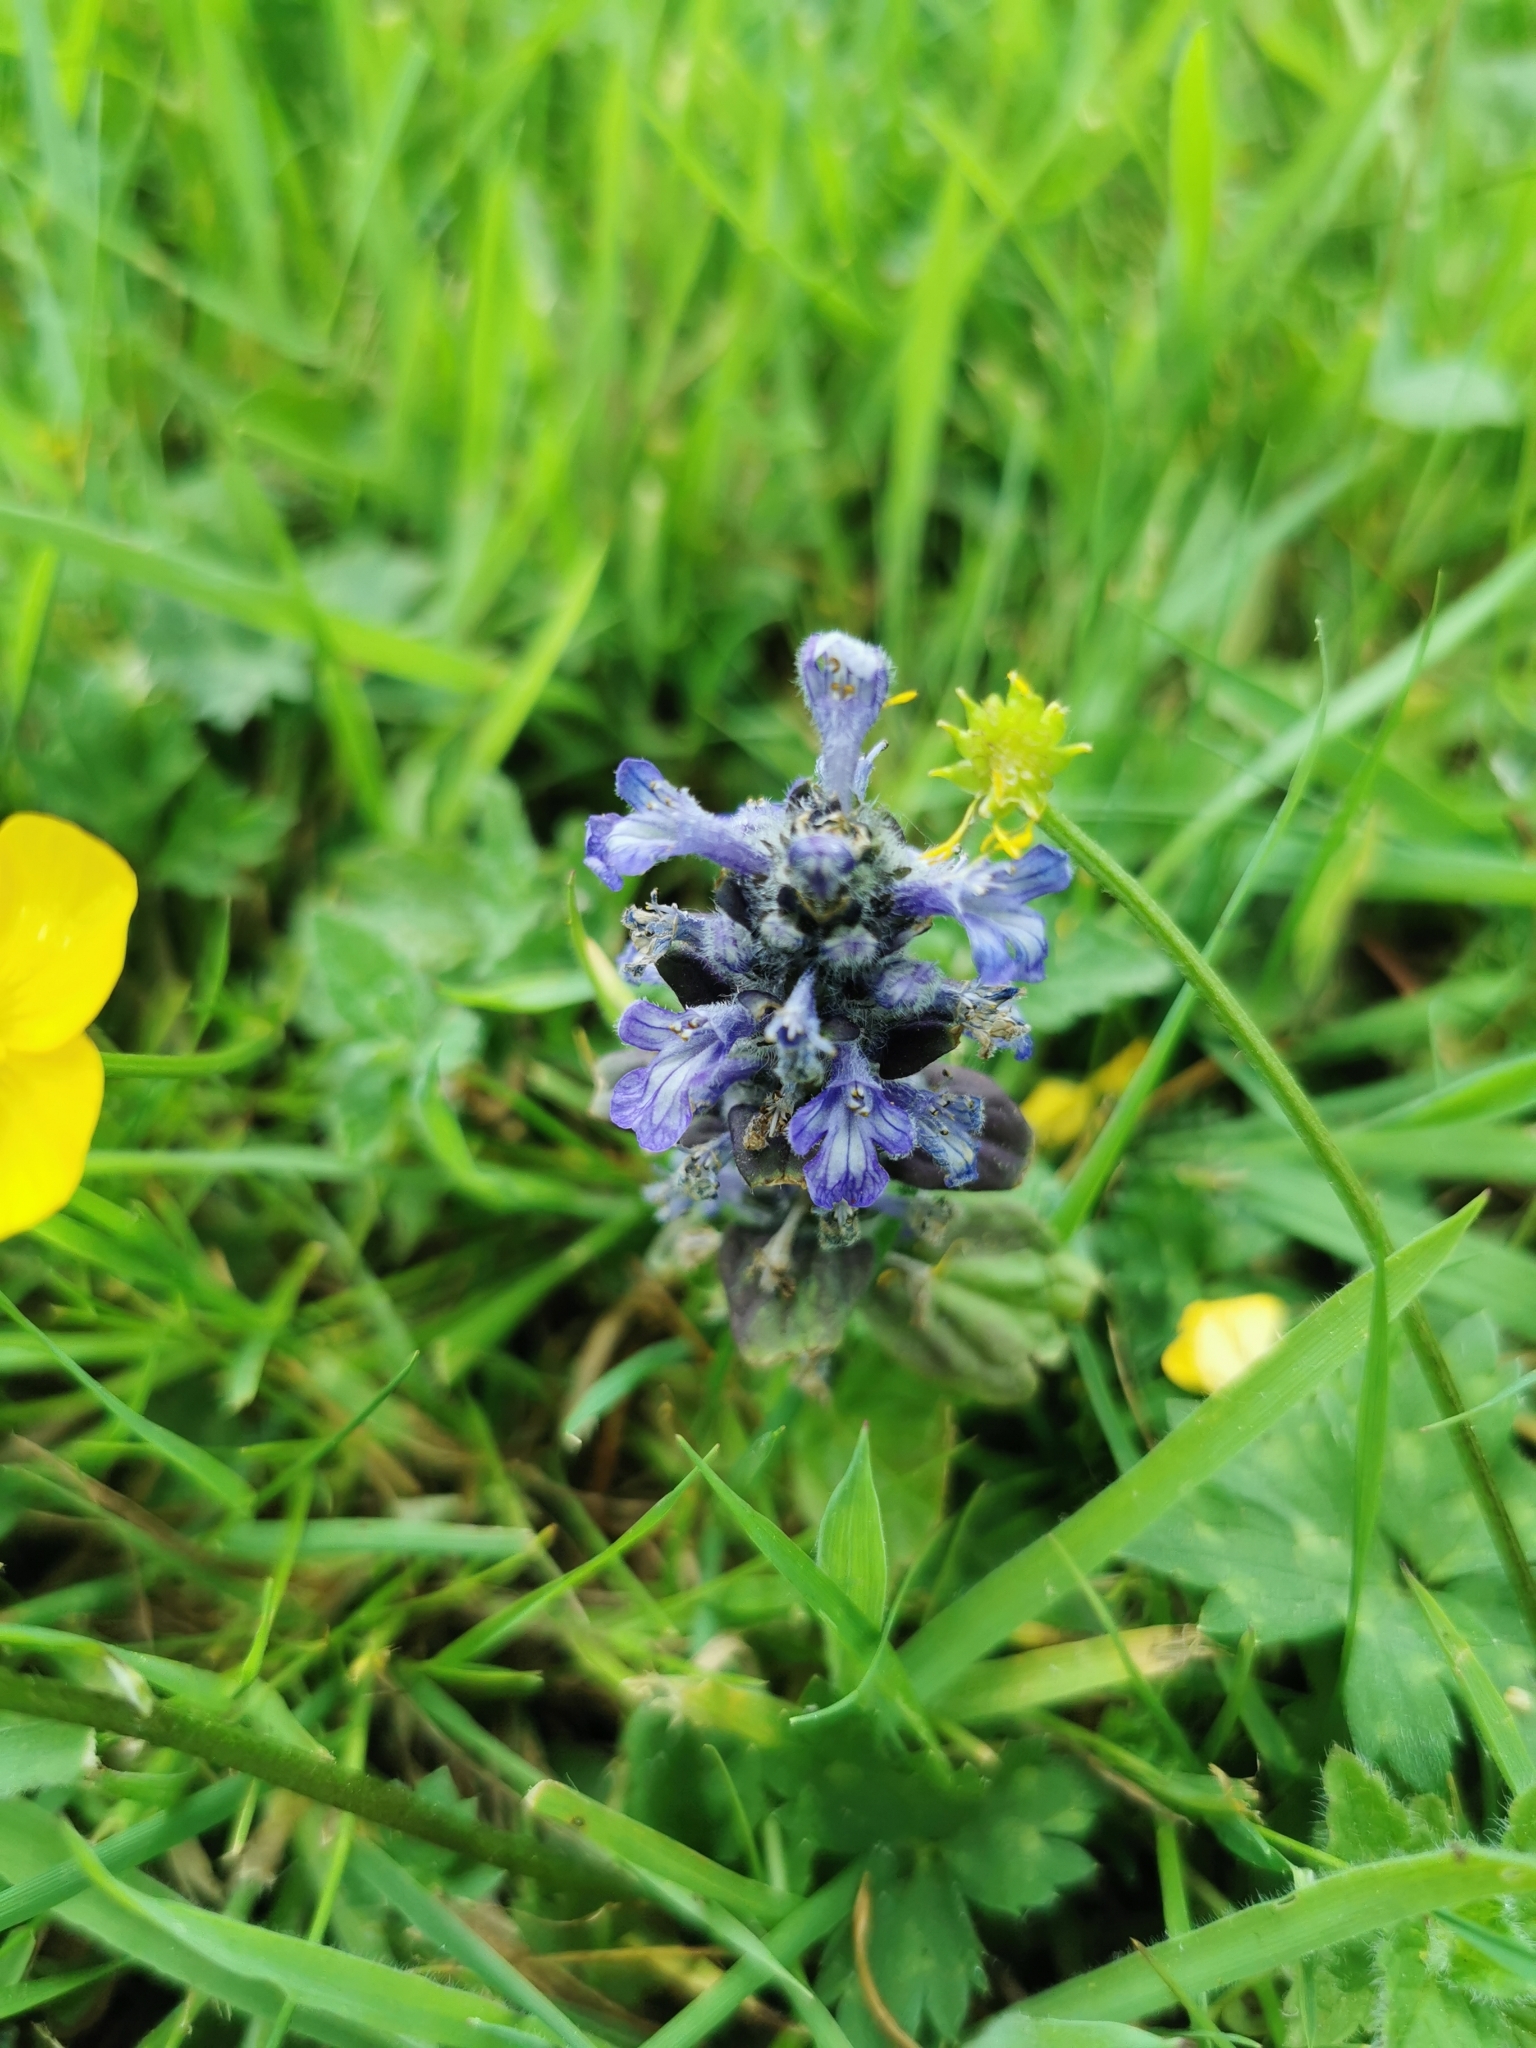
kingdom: Plantae
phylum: Tracheophyta
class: Magnoliopsida
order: Lamiales
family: Lamiaceae
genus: Ajuga
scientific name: Ajuga reptans
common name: Bugle
